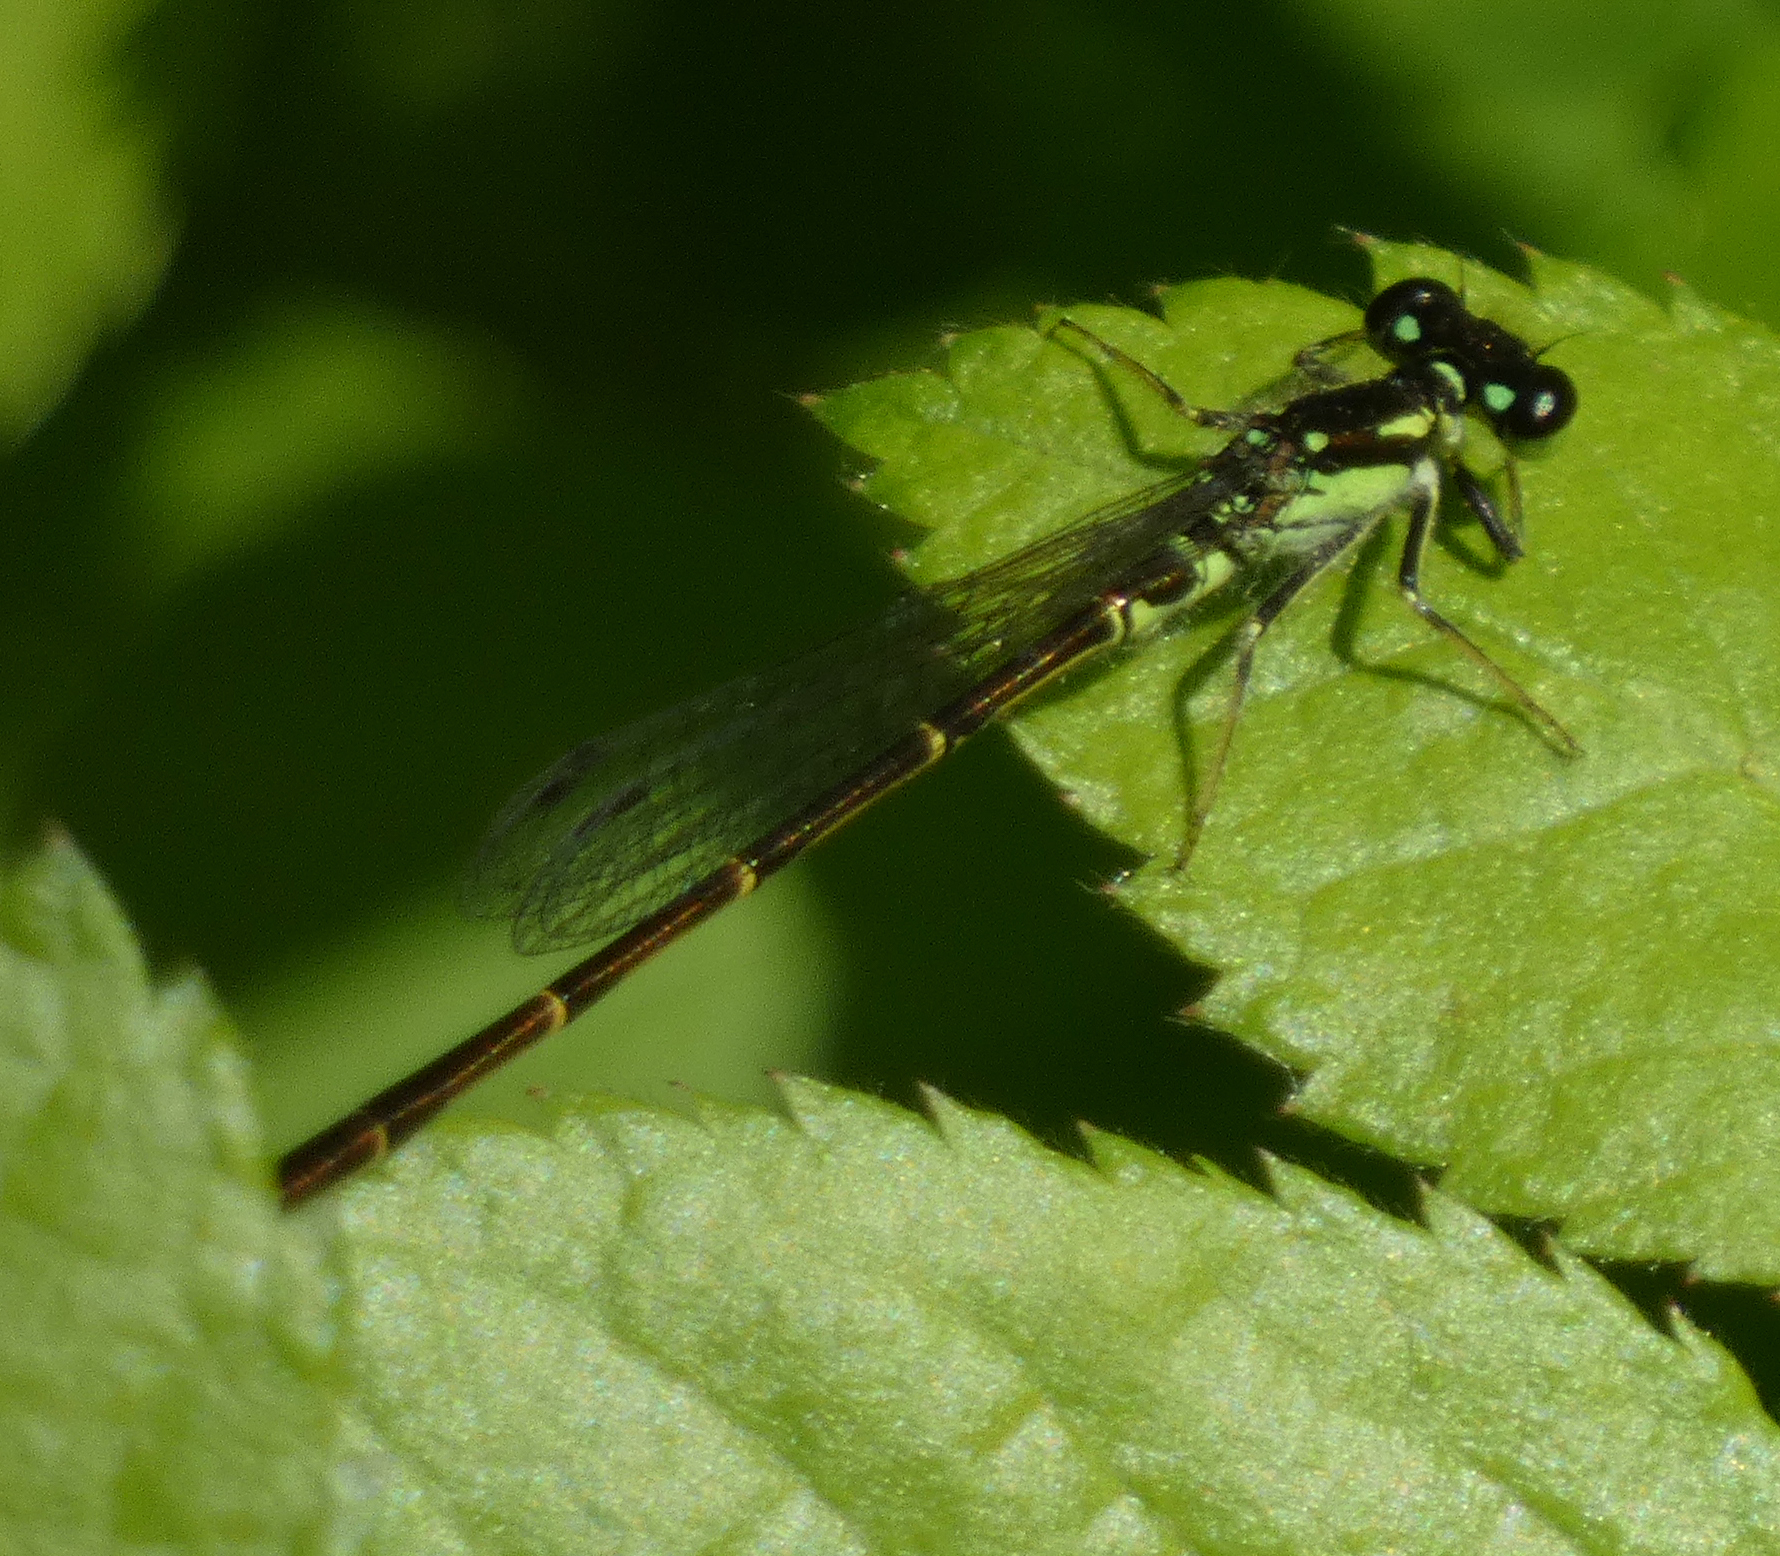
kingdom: Animalia
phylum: Arthropoda
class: Insecta
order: Odonata
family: Coenagrionidae
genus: Ischnura
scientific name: Ischnura posita
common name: Fragile forktail
